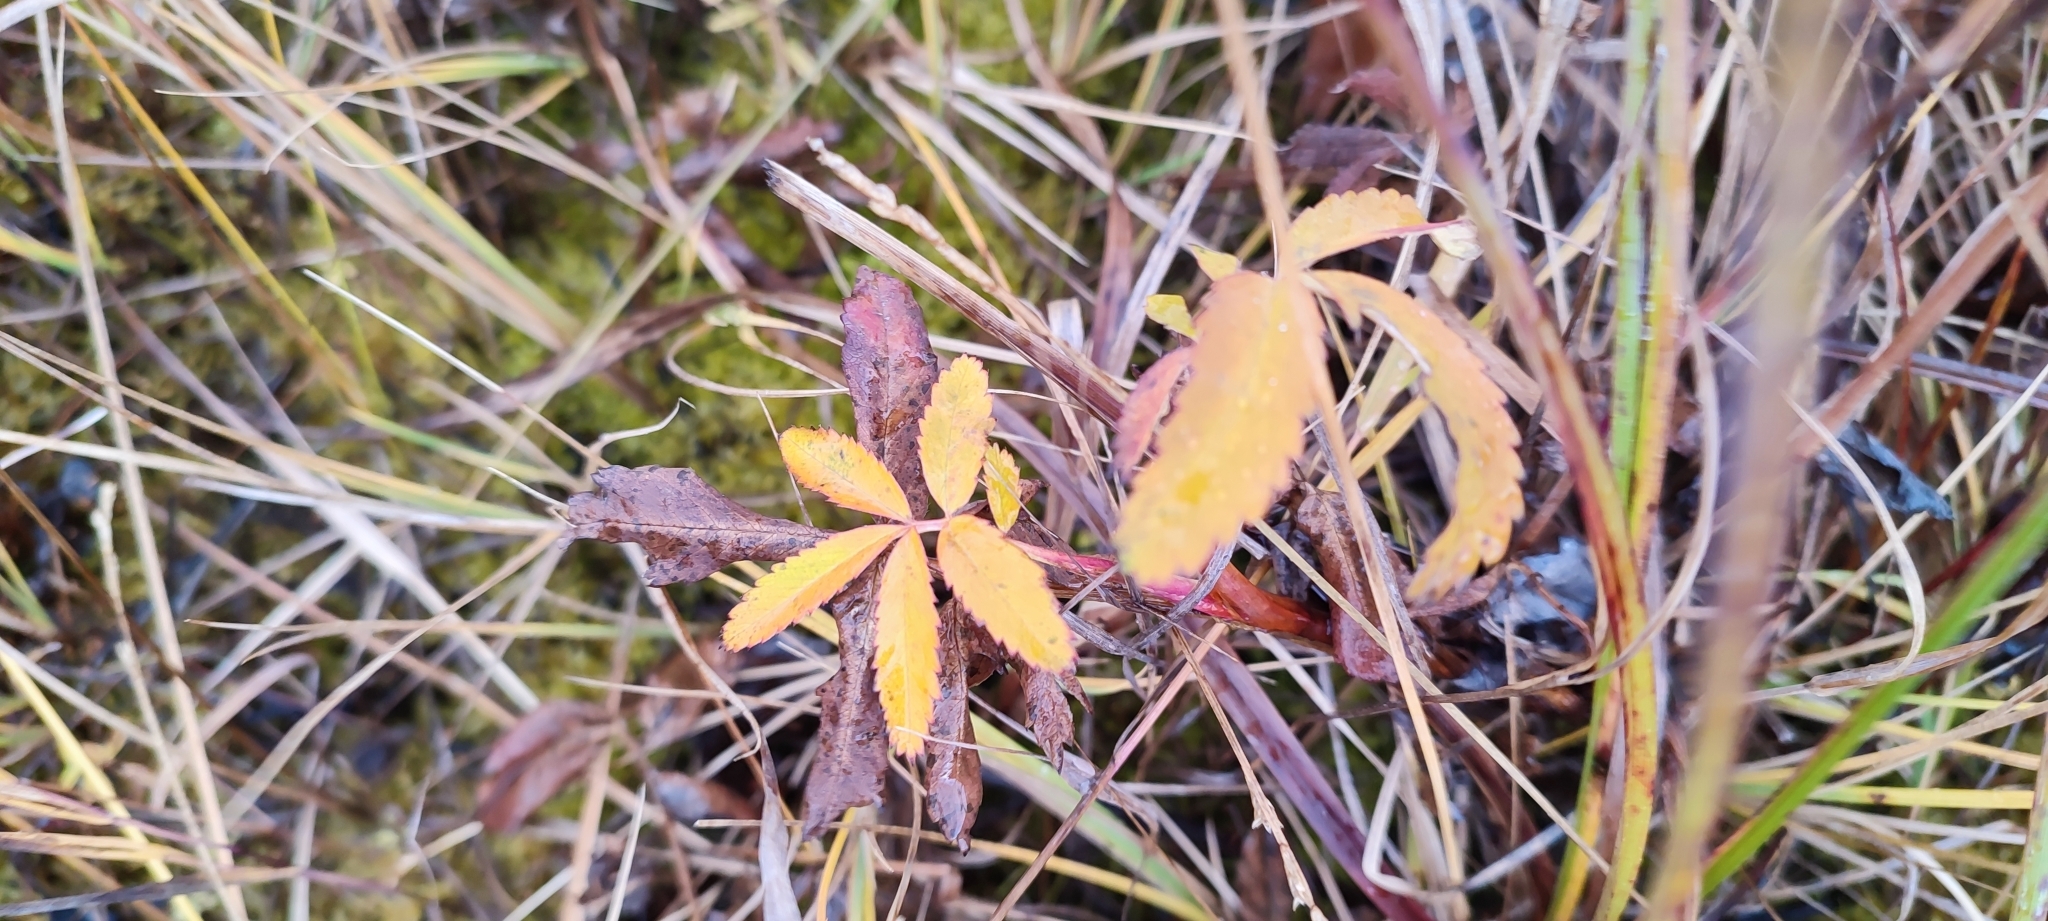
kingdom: Plantae
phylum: Tracheophyta
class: Magnoliopsida
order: Rosales
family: Rosaceae
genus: Comarum
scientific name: Comarum palustre
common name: Marsh cinquefoil
